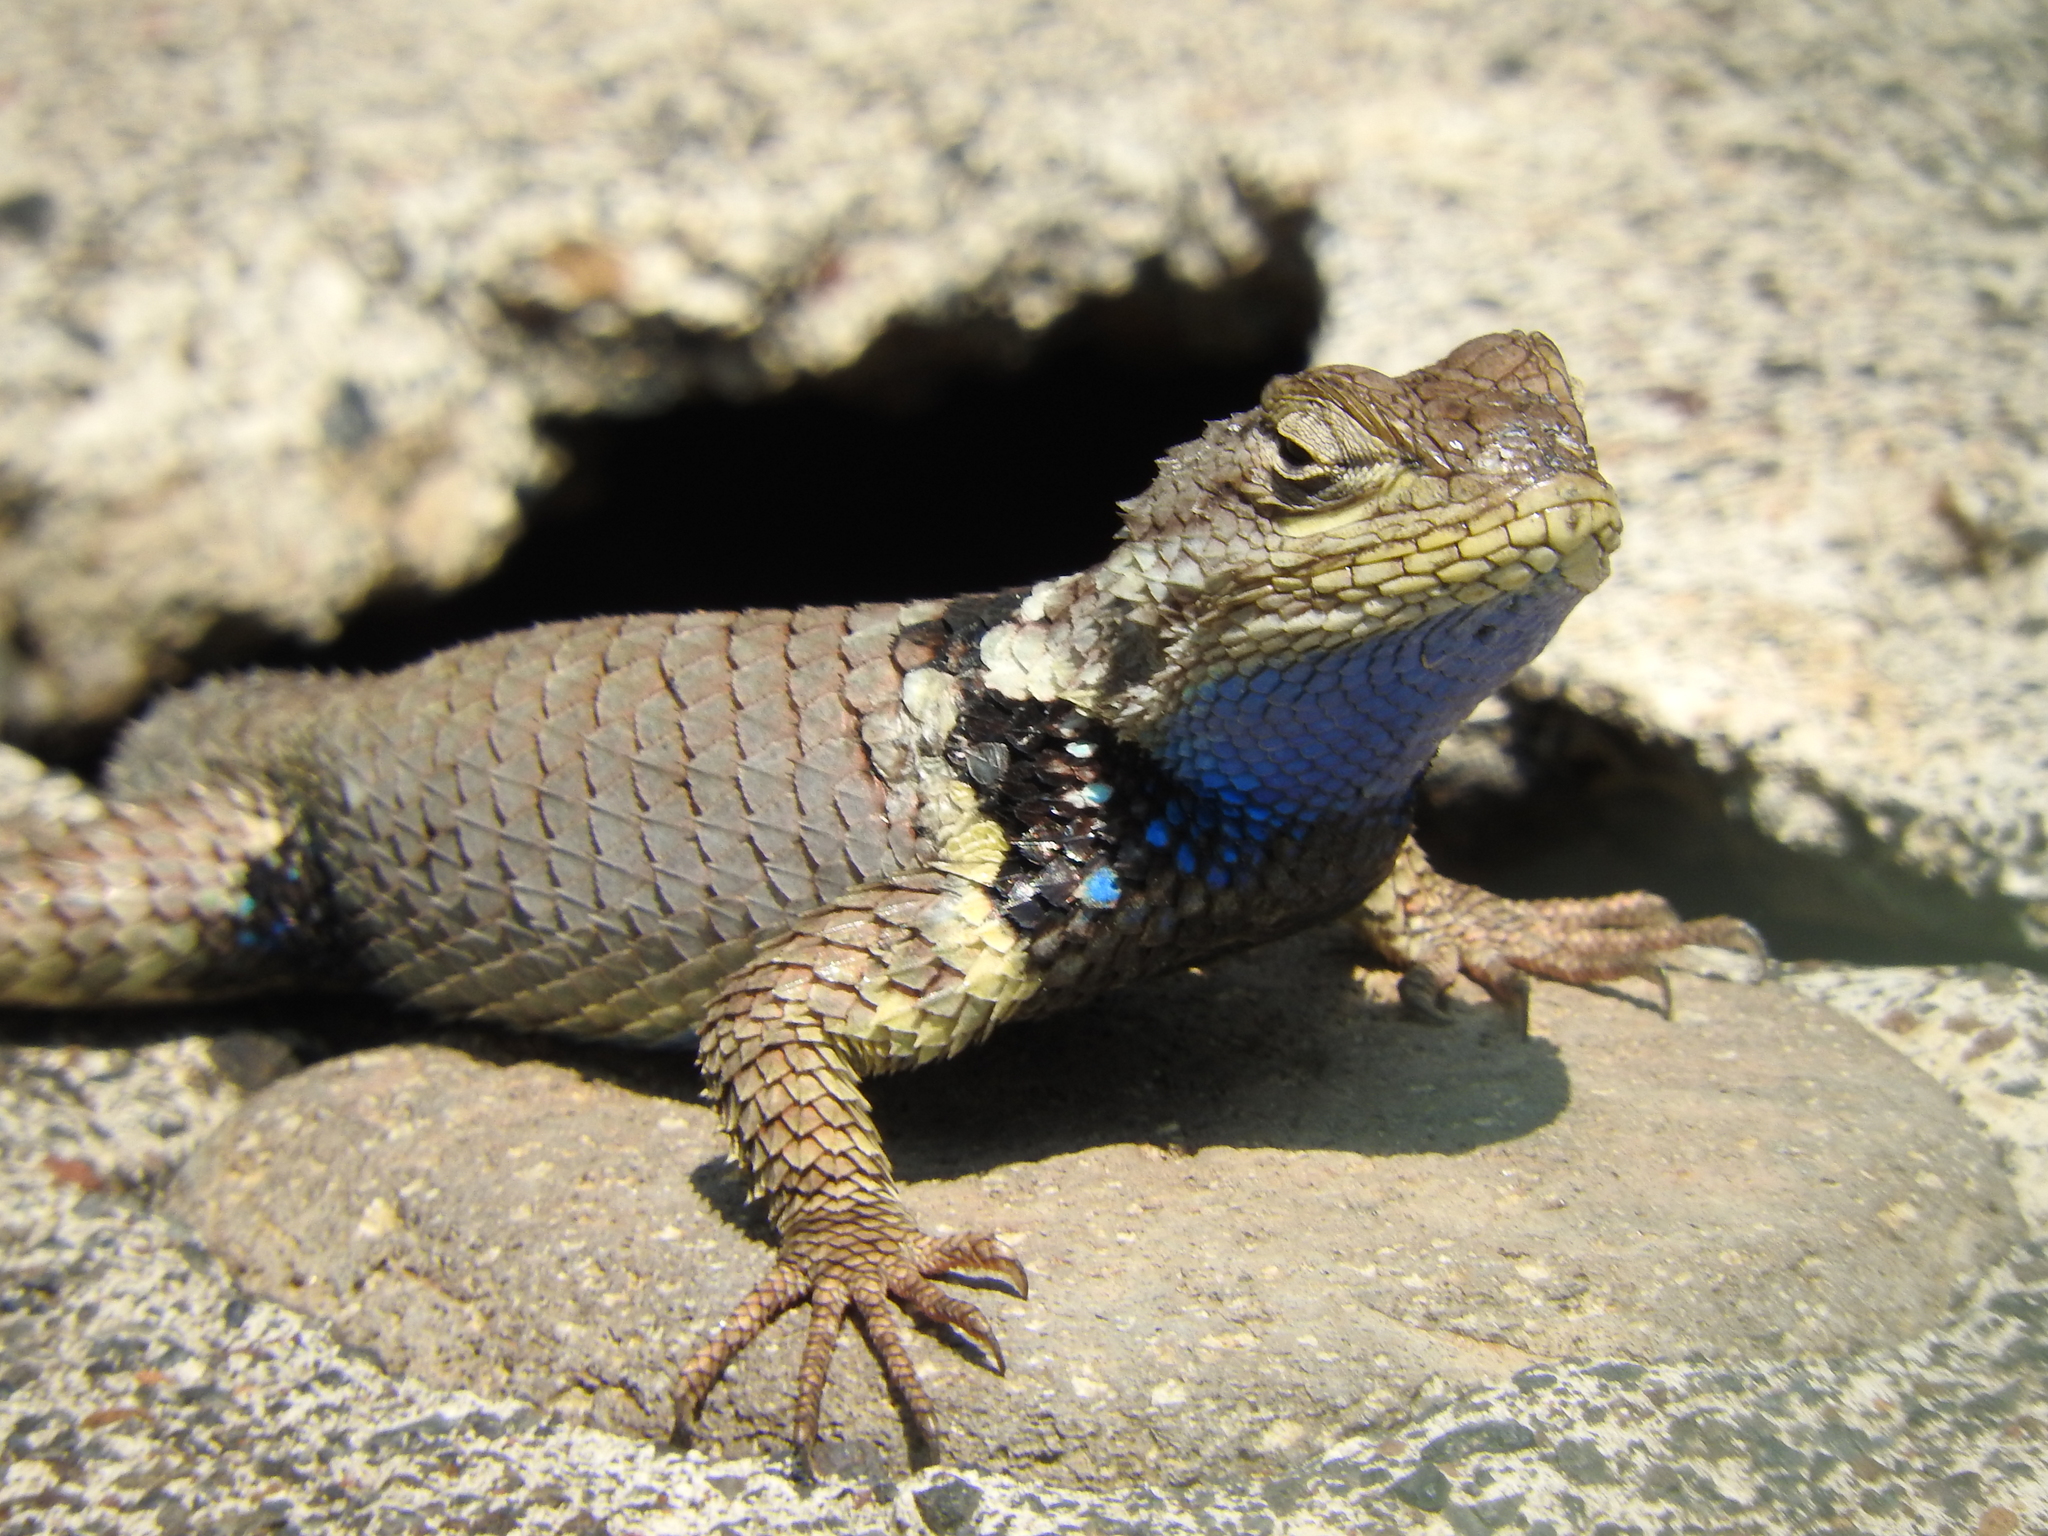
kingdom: Animalia
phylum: Chordata
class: Squamata
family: Phrynosomatidae
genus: Sceloporus
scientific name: Sceloporus torquatus
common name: Central plateau torquate lizard [melanogaster]
